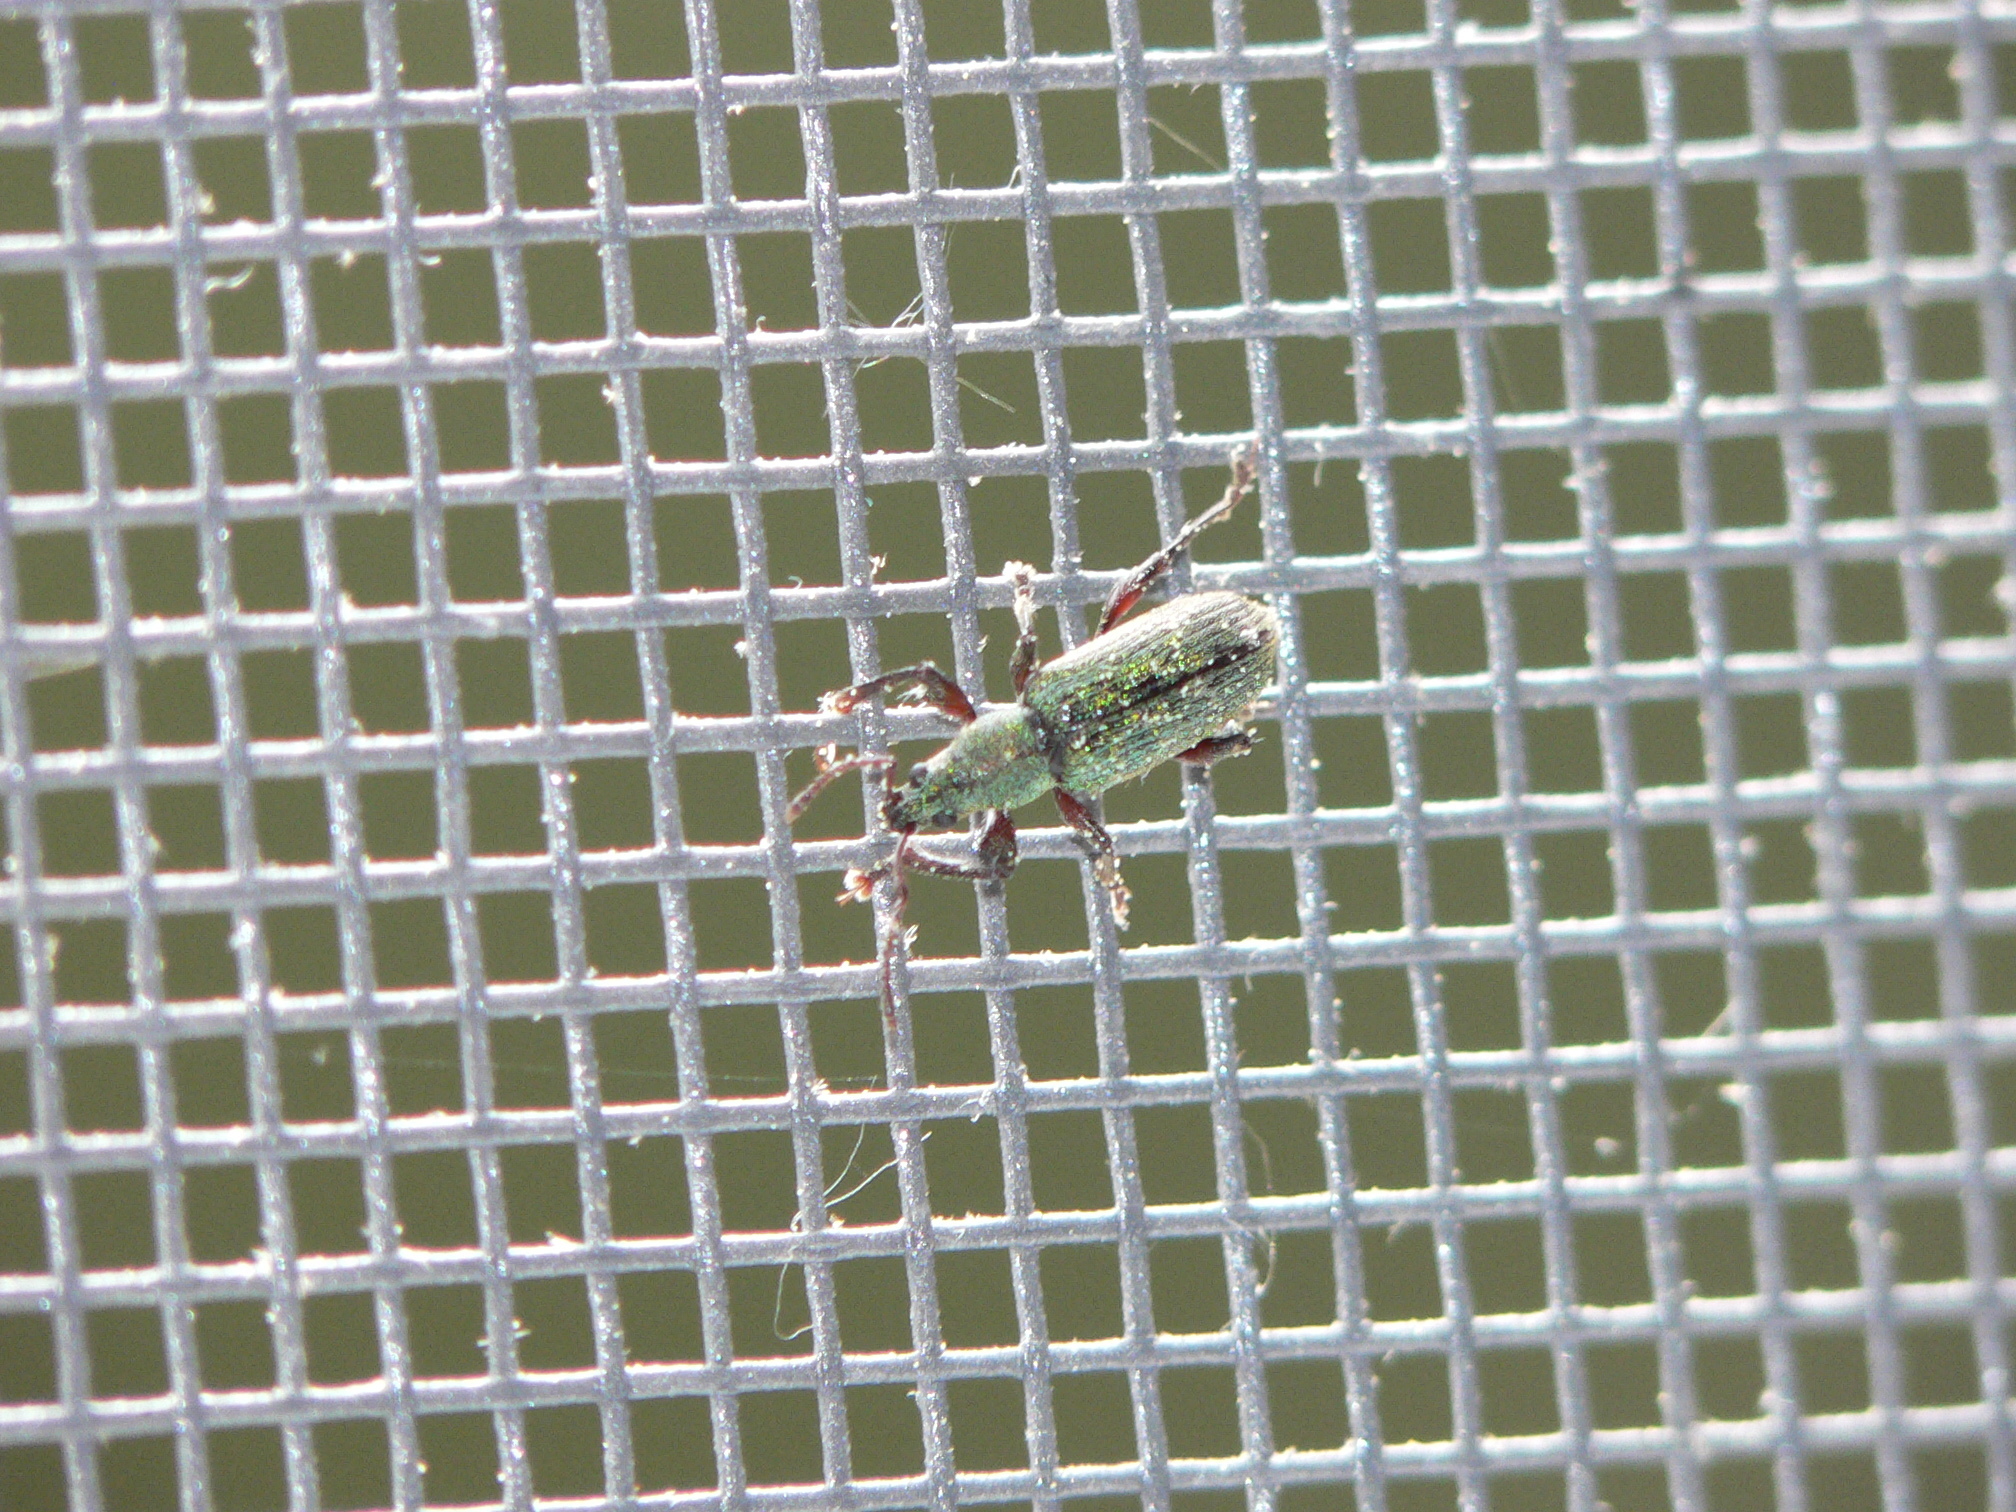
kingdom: Animalia
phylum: Arthropoda
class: Insecta
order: Coleoptera
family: Curculionidae
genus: Parascythopus
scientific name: Parascythopus intrusus
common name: Weevil
